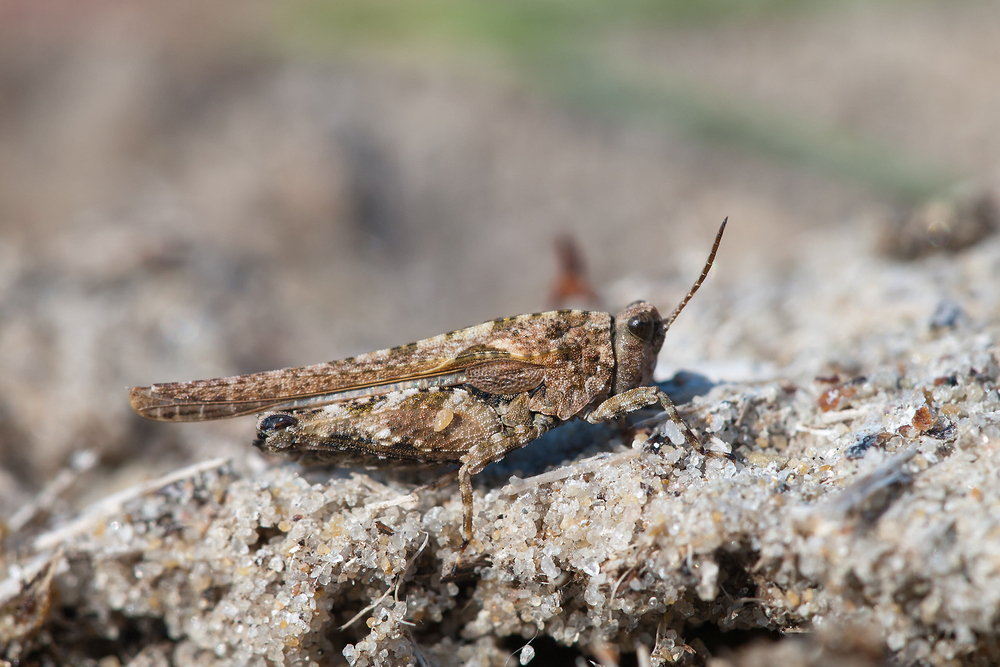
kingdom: Animalia
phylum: Arthropoda
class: Insecta
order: Orthoptera
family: Tetrigidae
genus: Tetrix
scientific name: Tetrix ceperoi
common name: Cepero's ground-hopper
